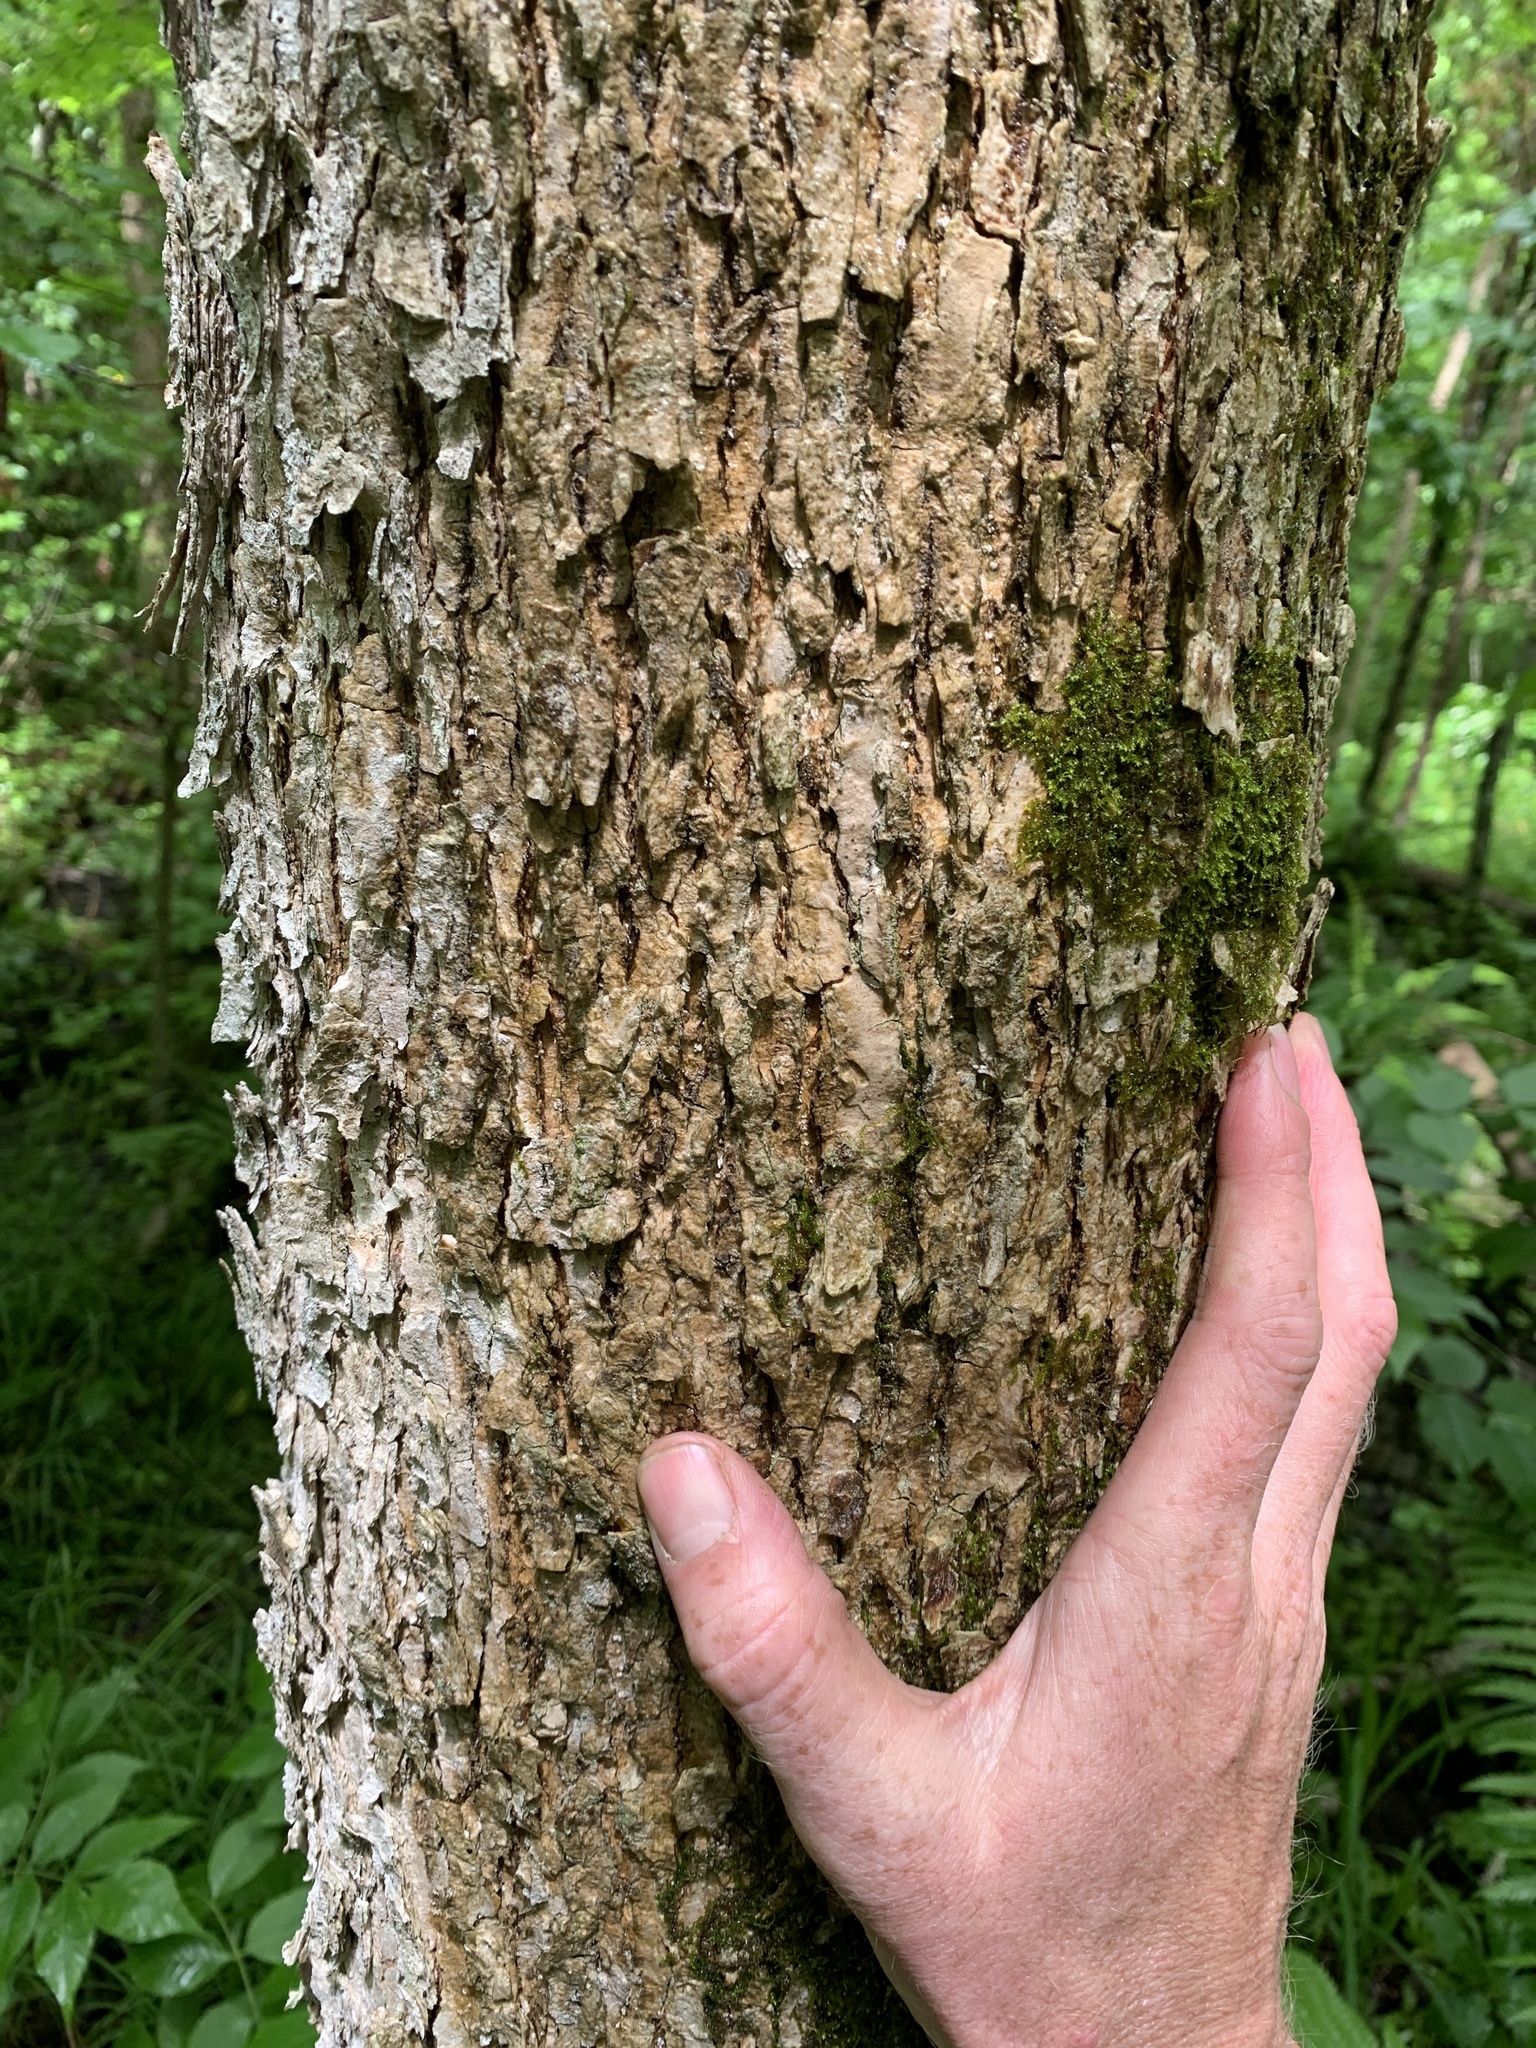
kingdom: Plantae
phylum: Tracheophyta
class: Magnoliopsida
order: Lamiales
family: Oleaceae
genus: Fraxinus
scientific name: Fraxinus nigra
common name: Black ash
